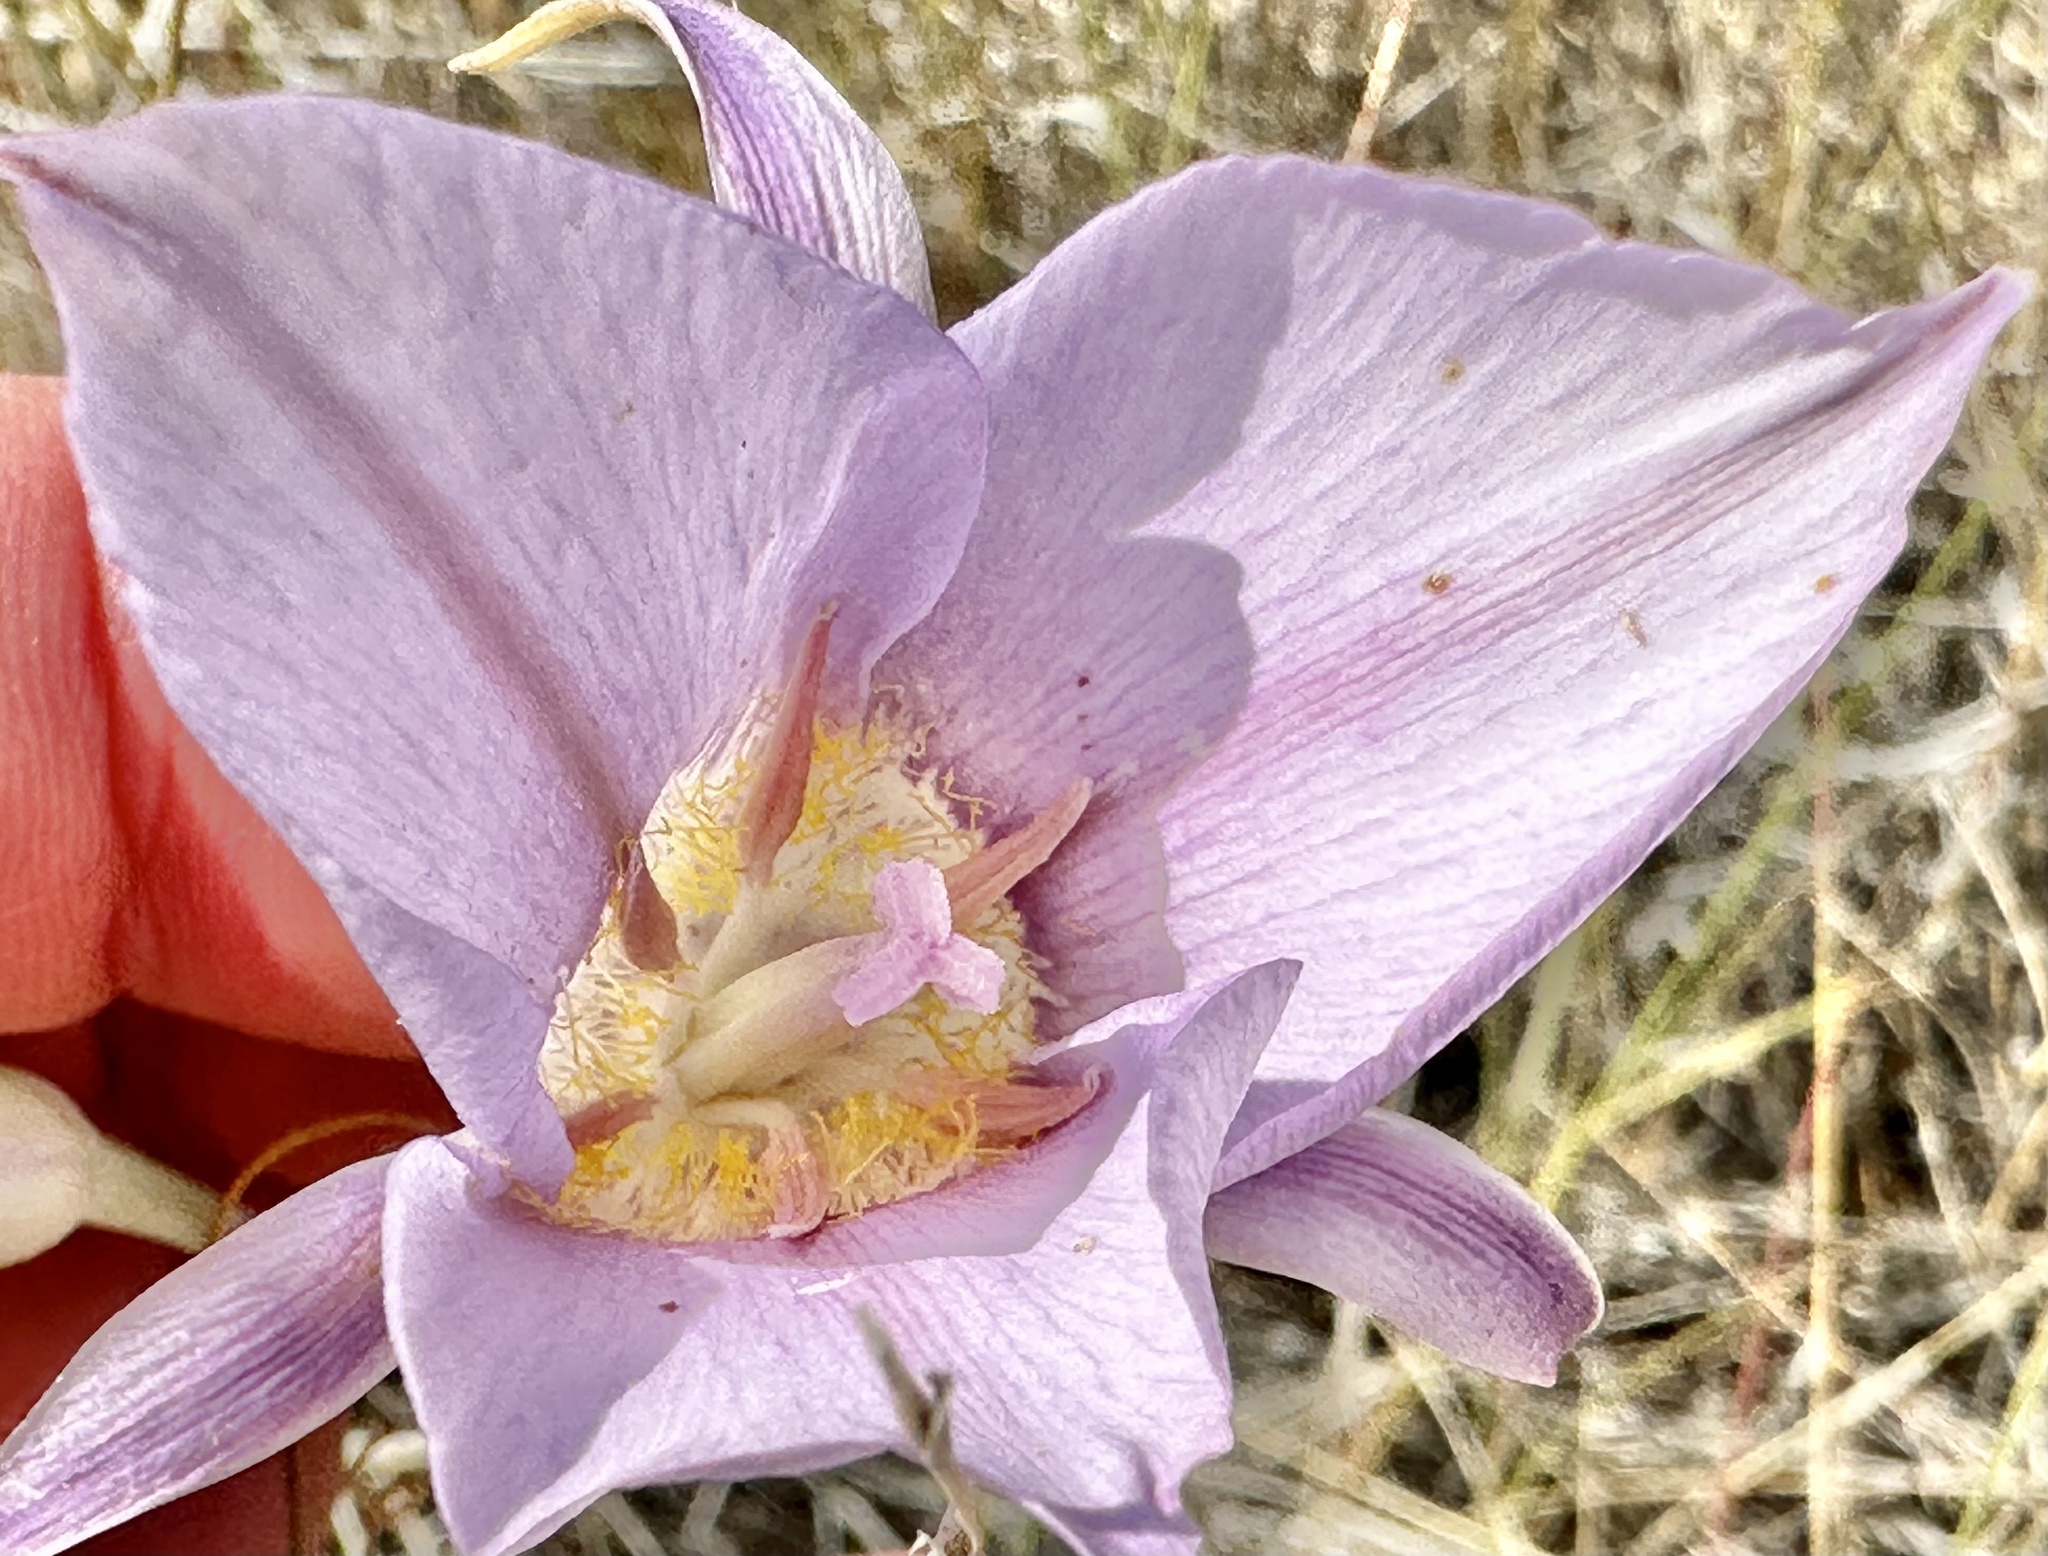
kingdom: Plantae
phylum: Tracheophyta
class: Liliopsida
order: Liliales
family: Liliaceae
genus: Calochortus
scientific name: Calochortus macrocarpus
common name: Green-band mariposa lily
